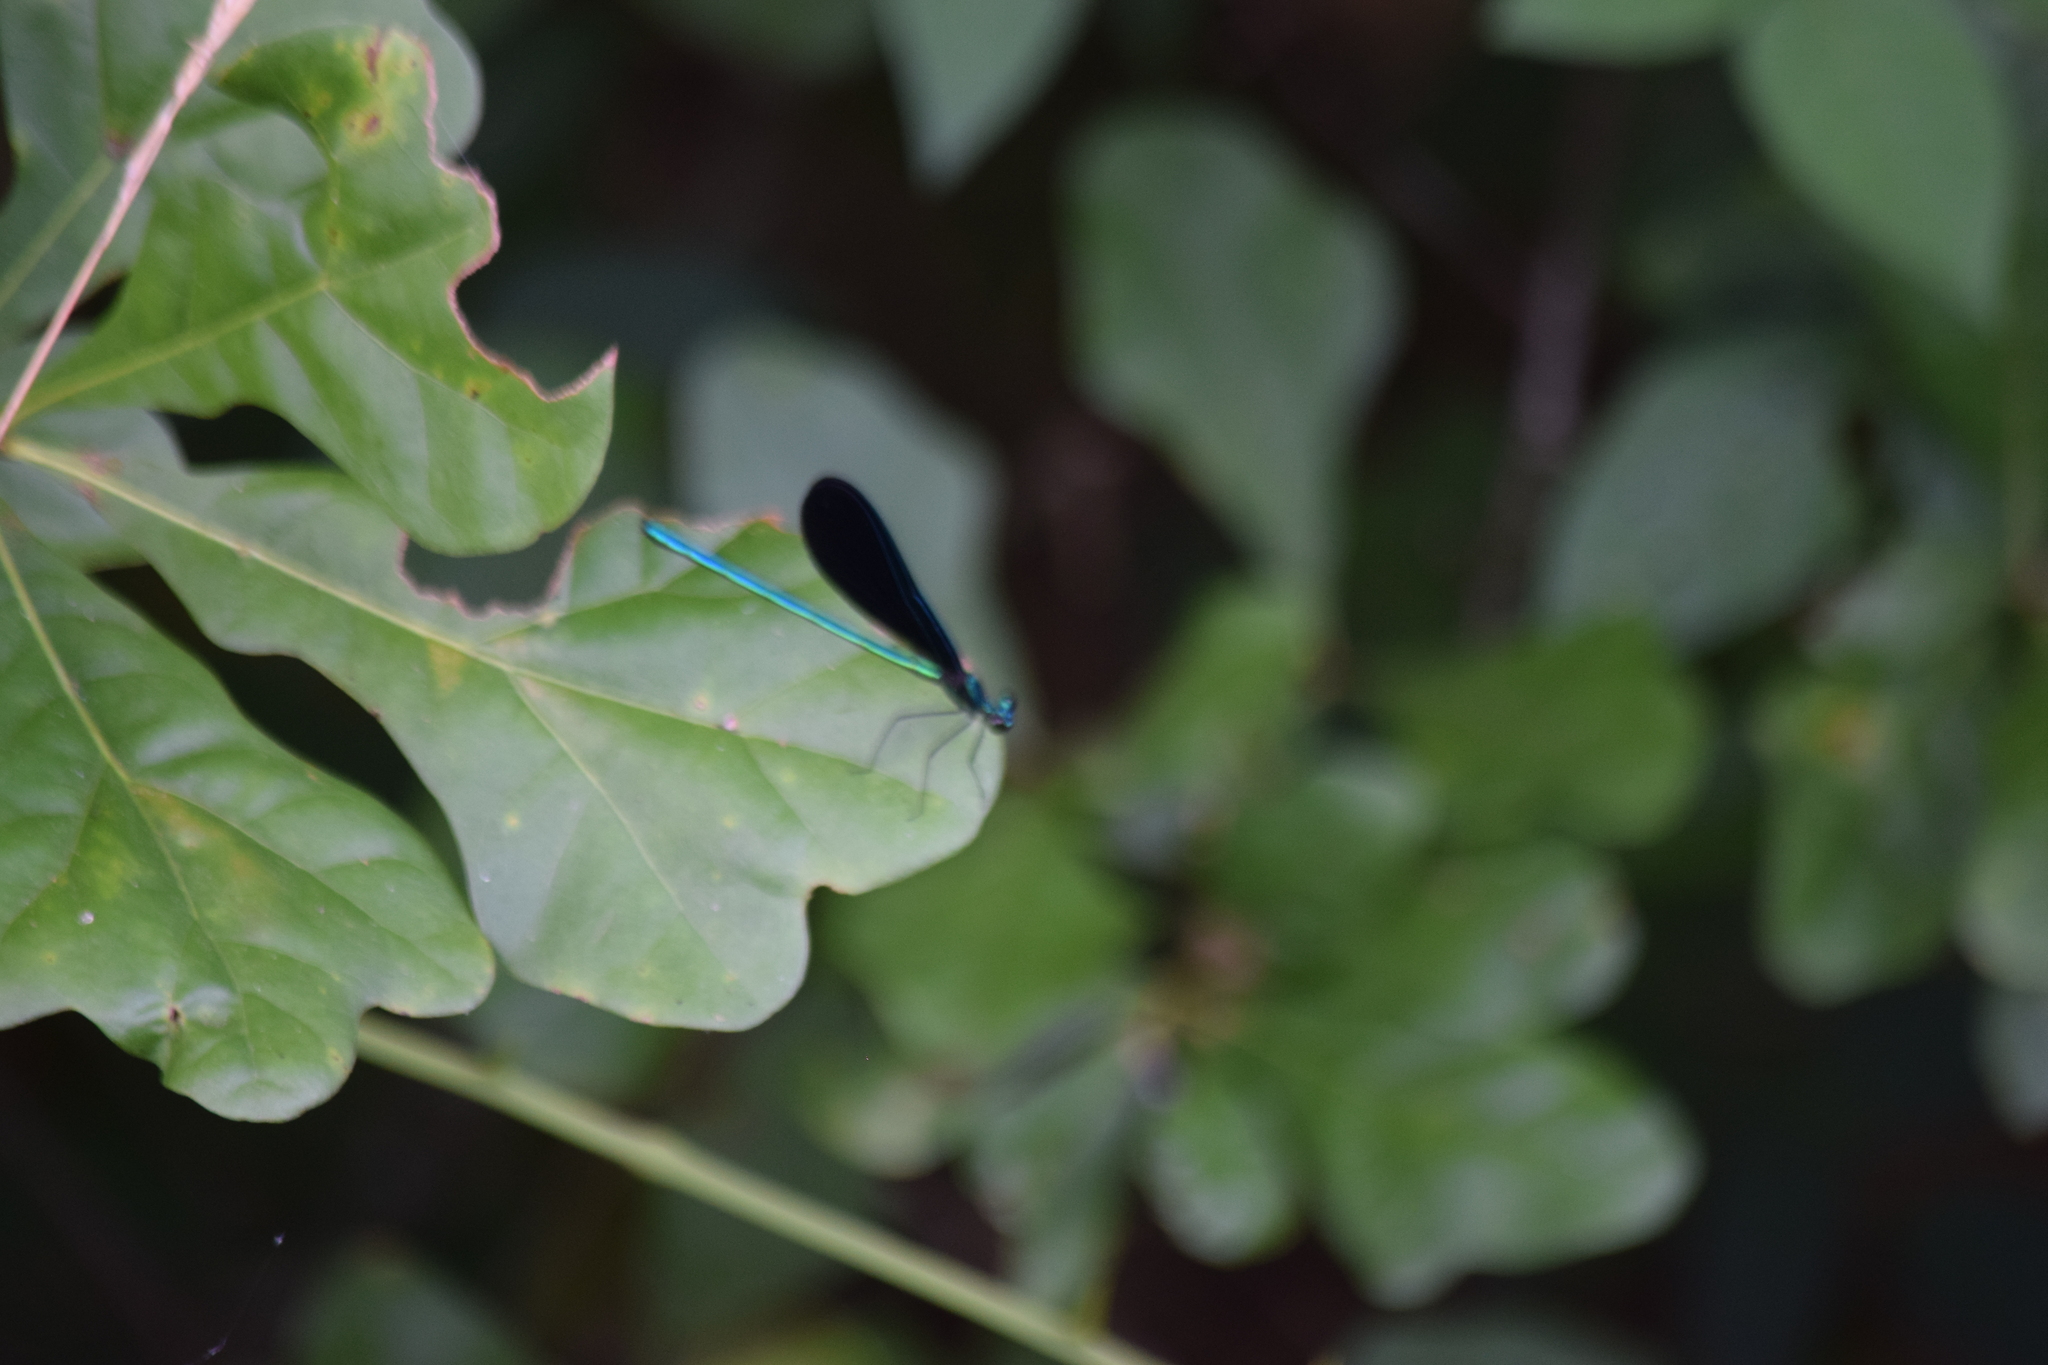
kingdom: Animalia
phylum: Arthropoda
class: Insecta
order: Odonata
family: Calopterygidae
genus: Calopteryx
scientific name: Calopteryx maculata
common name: Ebony jewelwing
